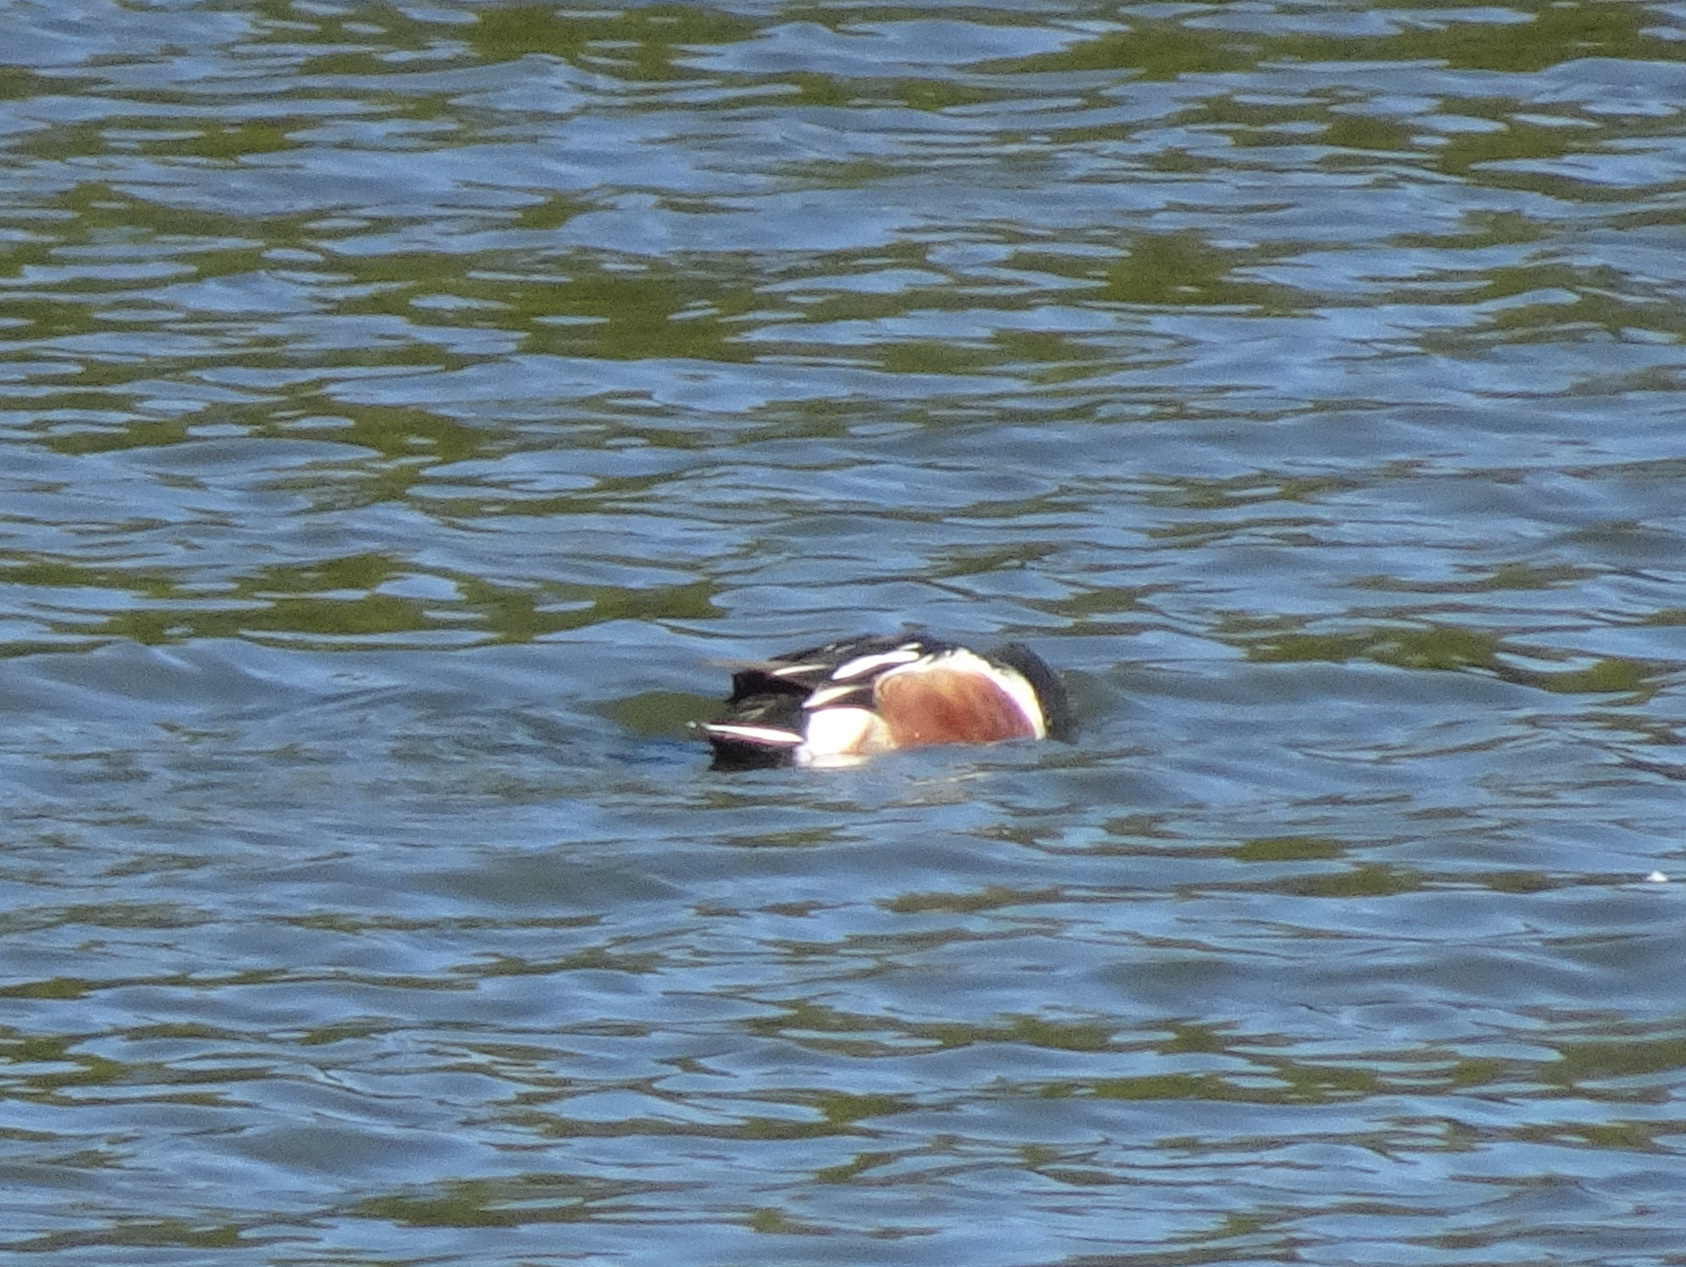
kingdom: Animalia
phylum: Chordata
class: Aves
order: Anseriformes
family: Anatidae
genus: Spatula
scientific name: Spatula clypeata
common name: Northern shoveler
